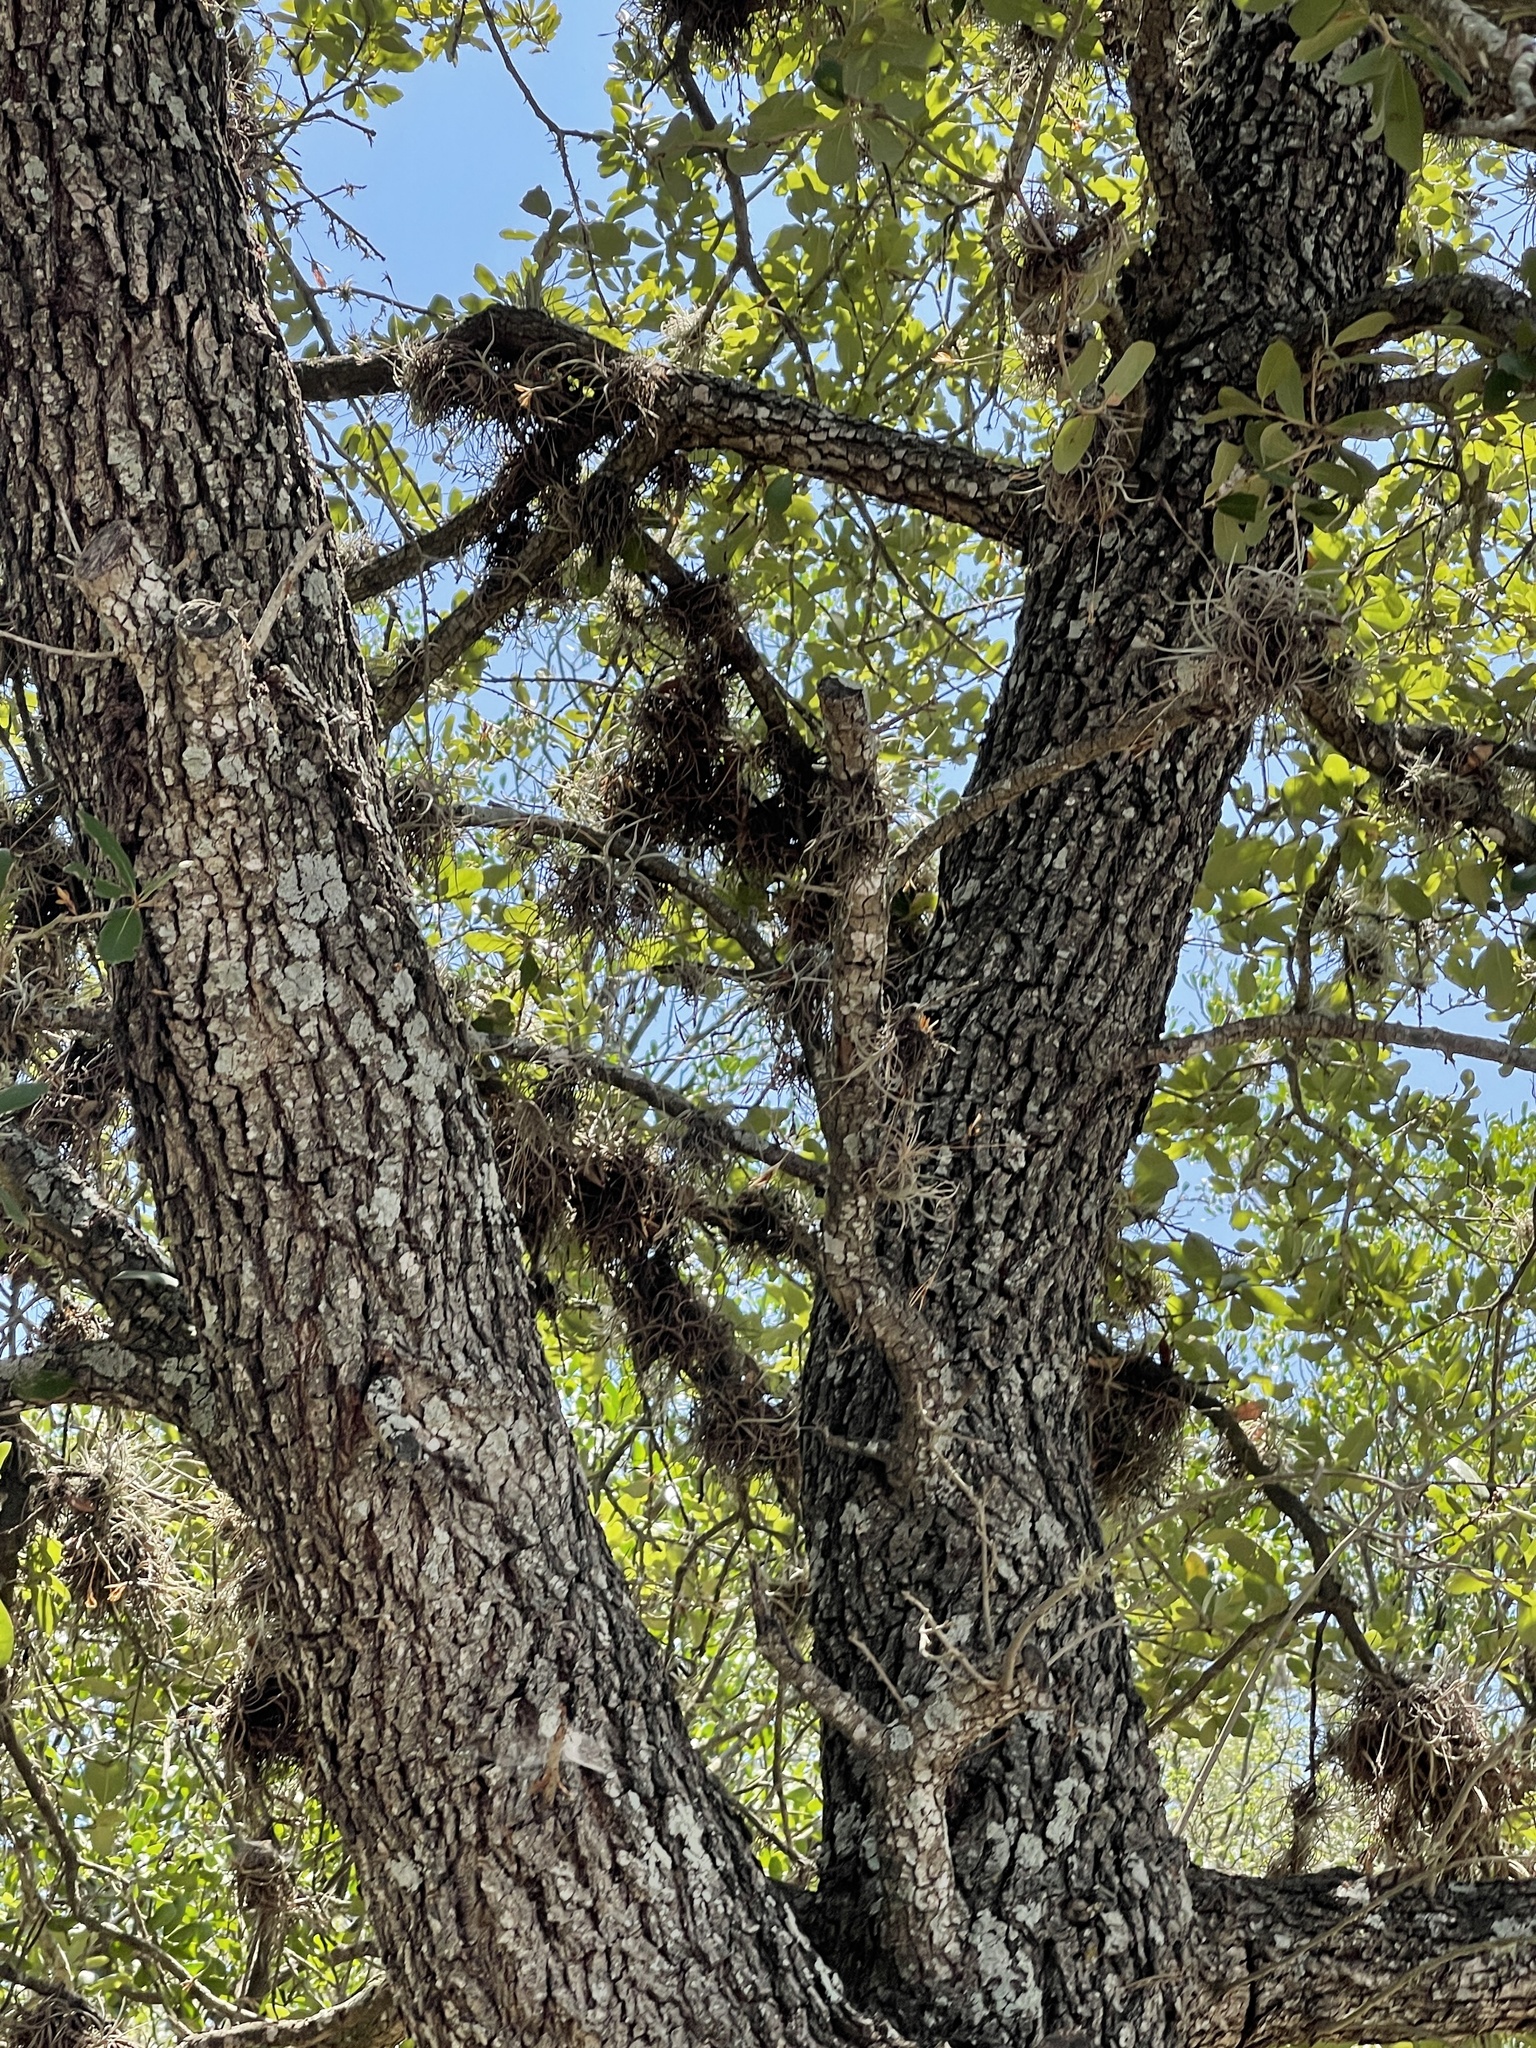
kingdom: Plantae
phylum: Tracheophyta
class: Magnoliopsida
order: Fagales
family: Fagaceae
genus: Quercus
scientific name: Quercus fusiformis
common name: Texas live oak
